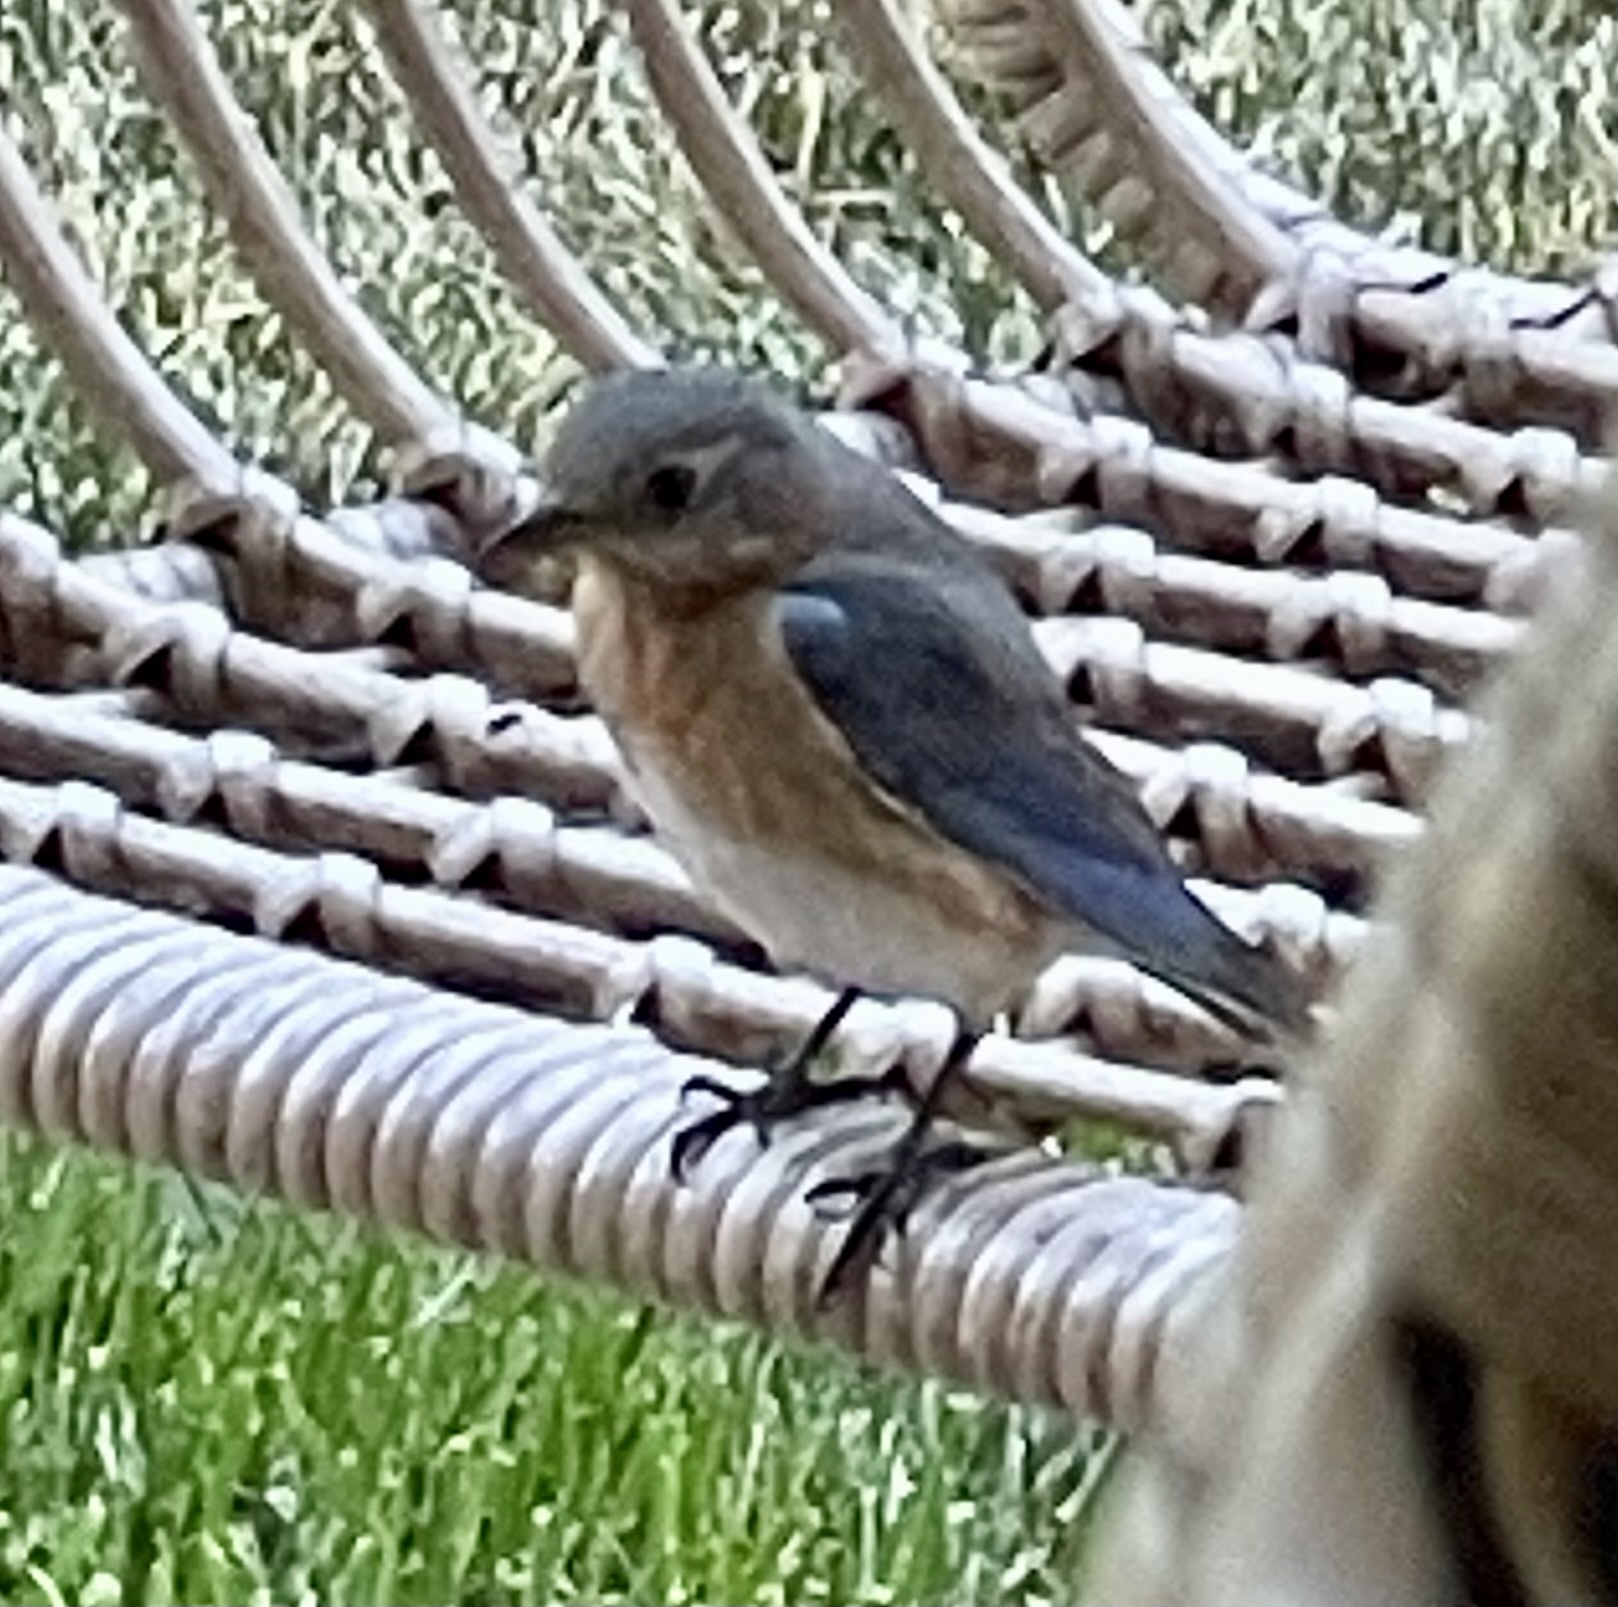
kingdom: Animalia
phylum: Chordata
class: Aves
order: Passeriformes
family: Turdidae
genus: Sialia
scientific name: Sialia sialis
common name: Eastern bluebird
